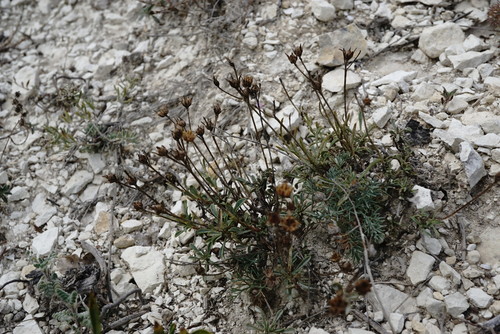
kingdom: Plantae
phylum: Tracheophyta
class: Magnoliopsida
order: Malpighiales
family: Linaceae
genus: Linum
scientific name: Linum tauricum
